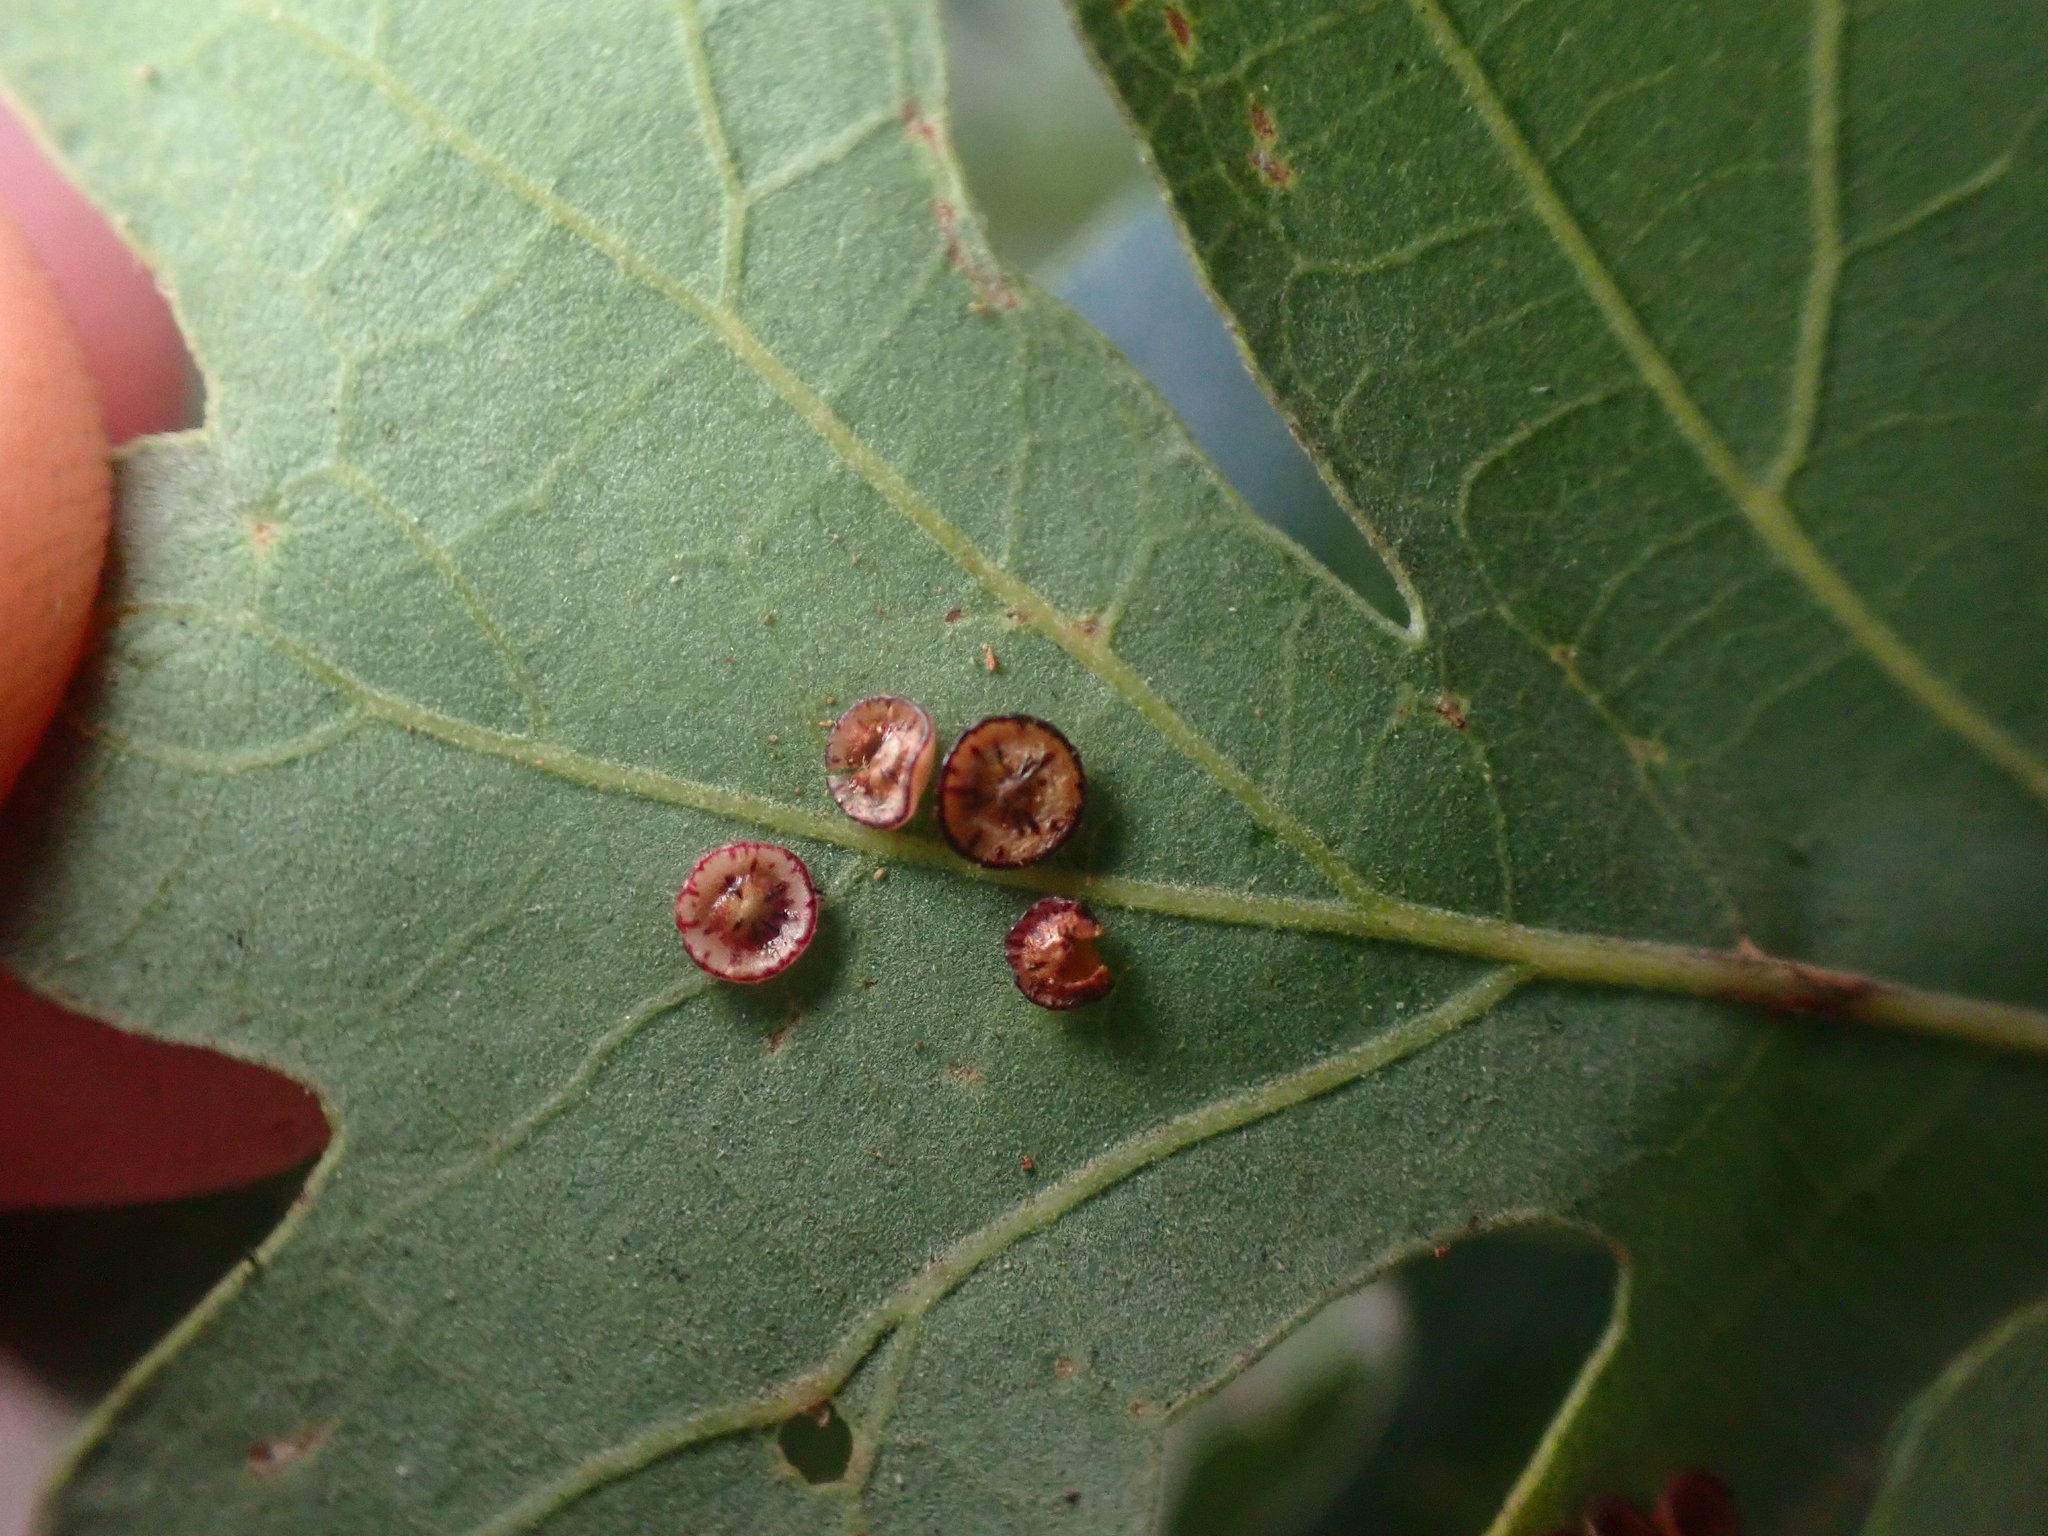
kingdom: Animalia
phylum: Arthropoda
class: Insecta
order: Hymenoptera
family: Cynipidae
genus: Andricus
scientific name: Andricus
